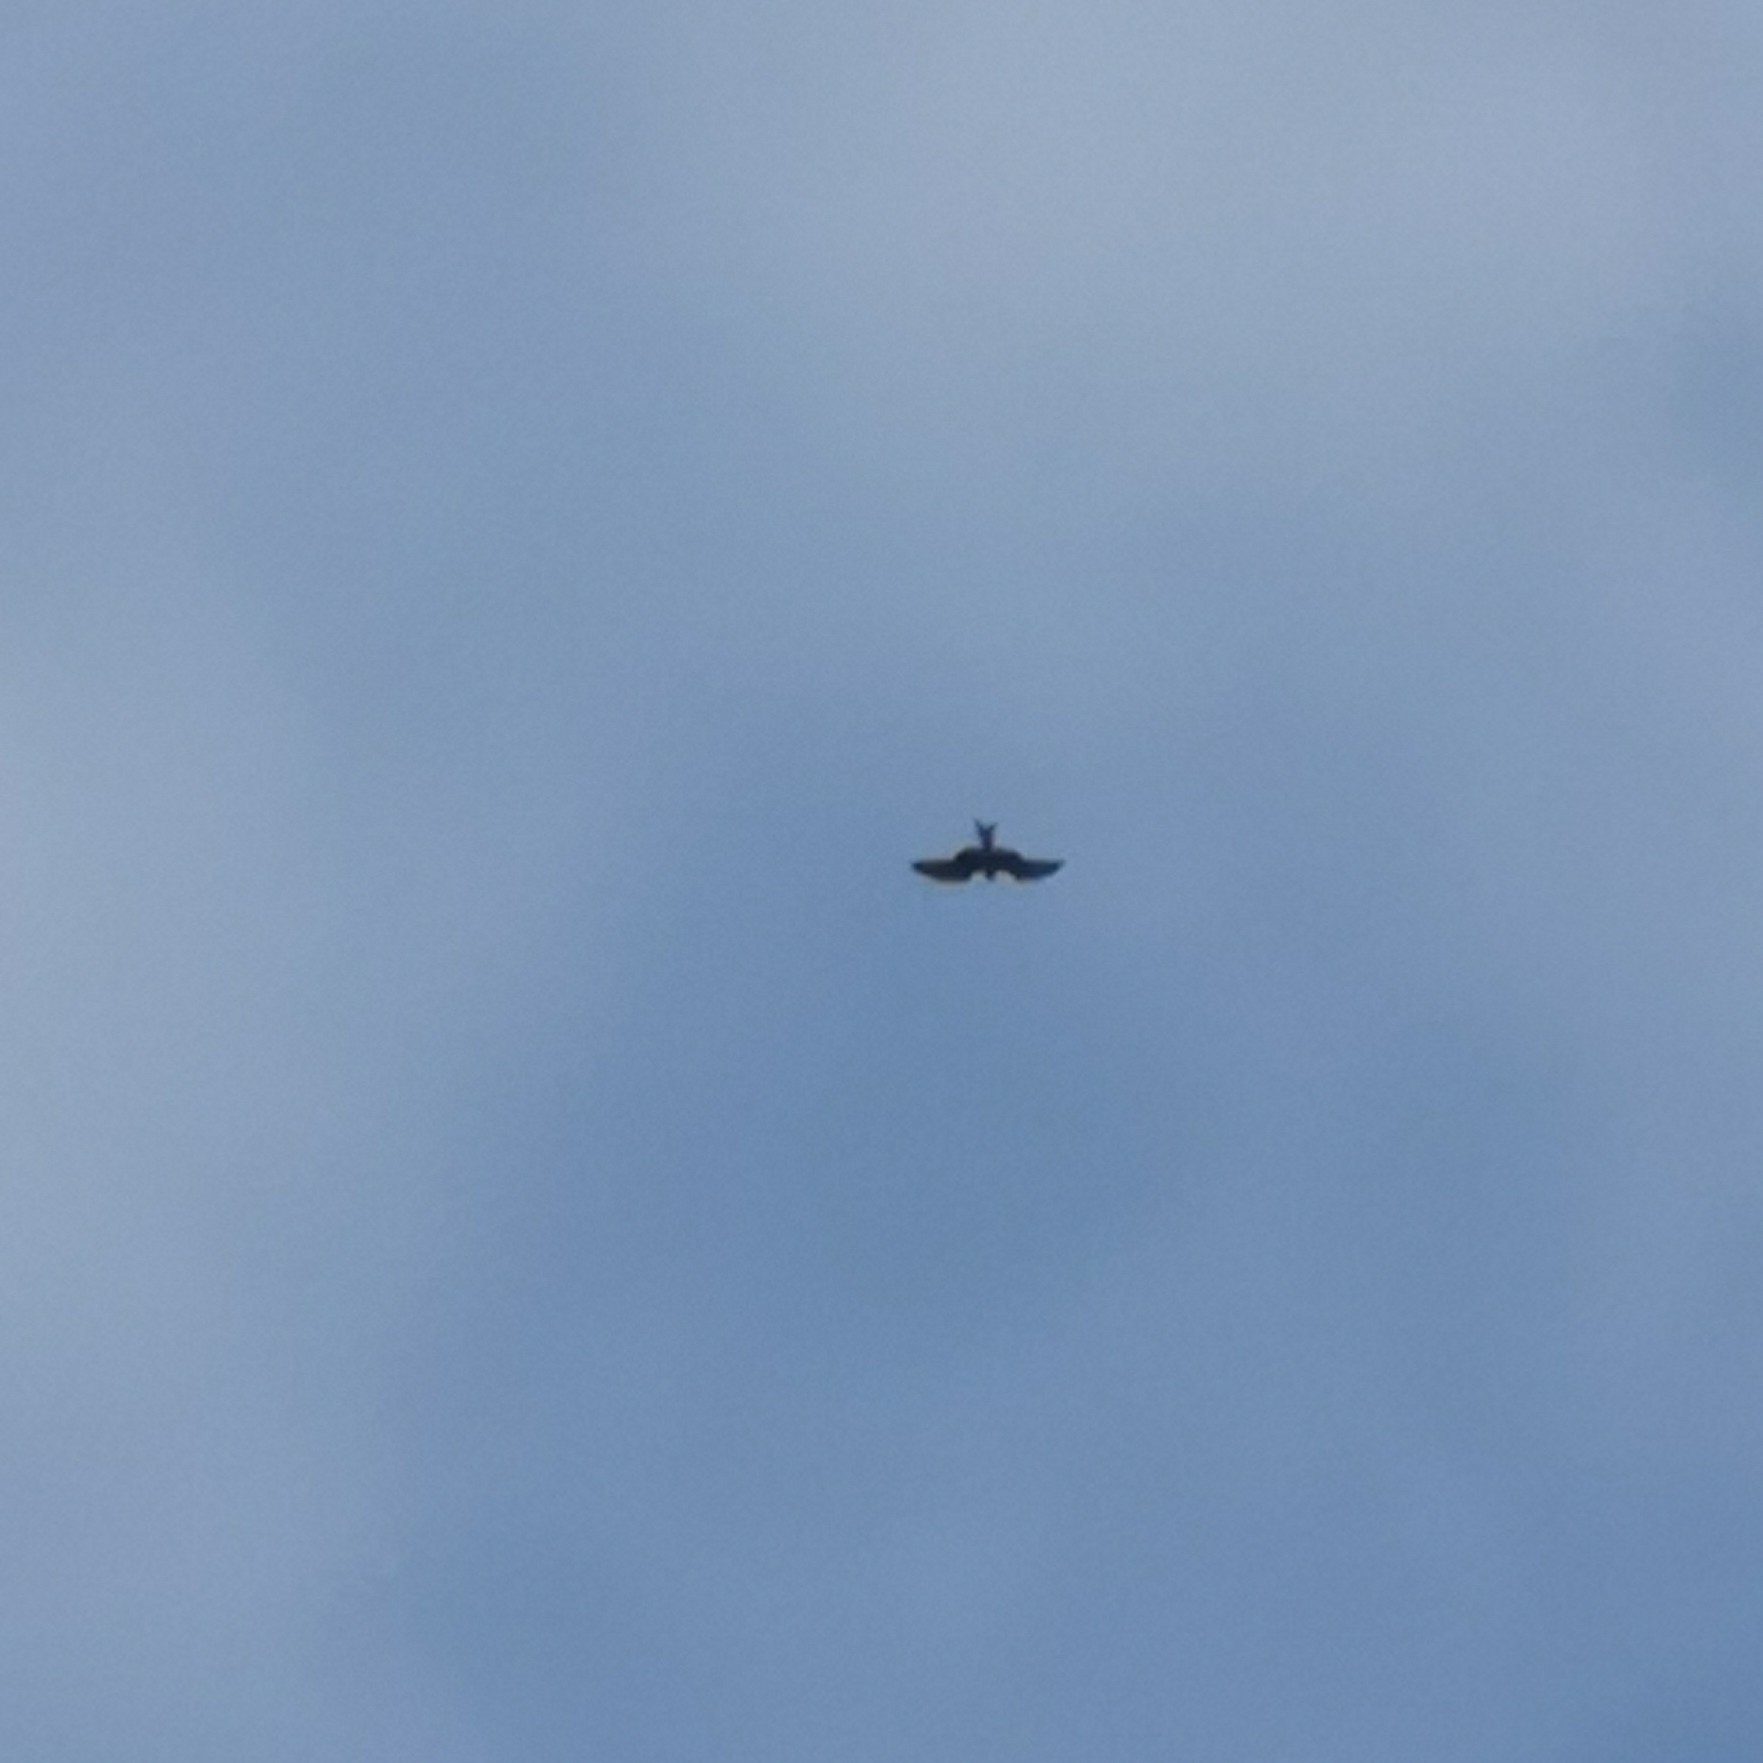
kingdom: Animalia
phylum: Chordata
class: Aves
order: Accipitriformes
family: Accipitridae
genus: Milvus
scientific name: Milvus milvus
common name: Red kite
